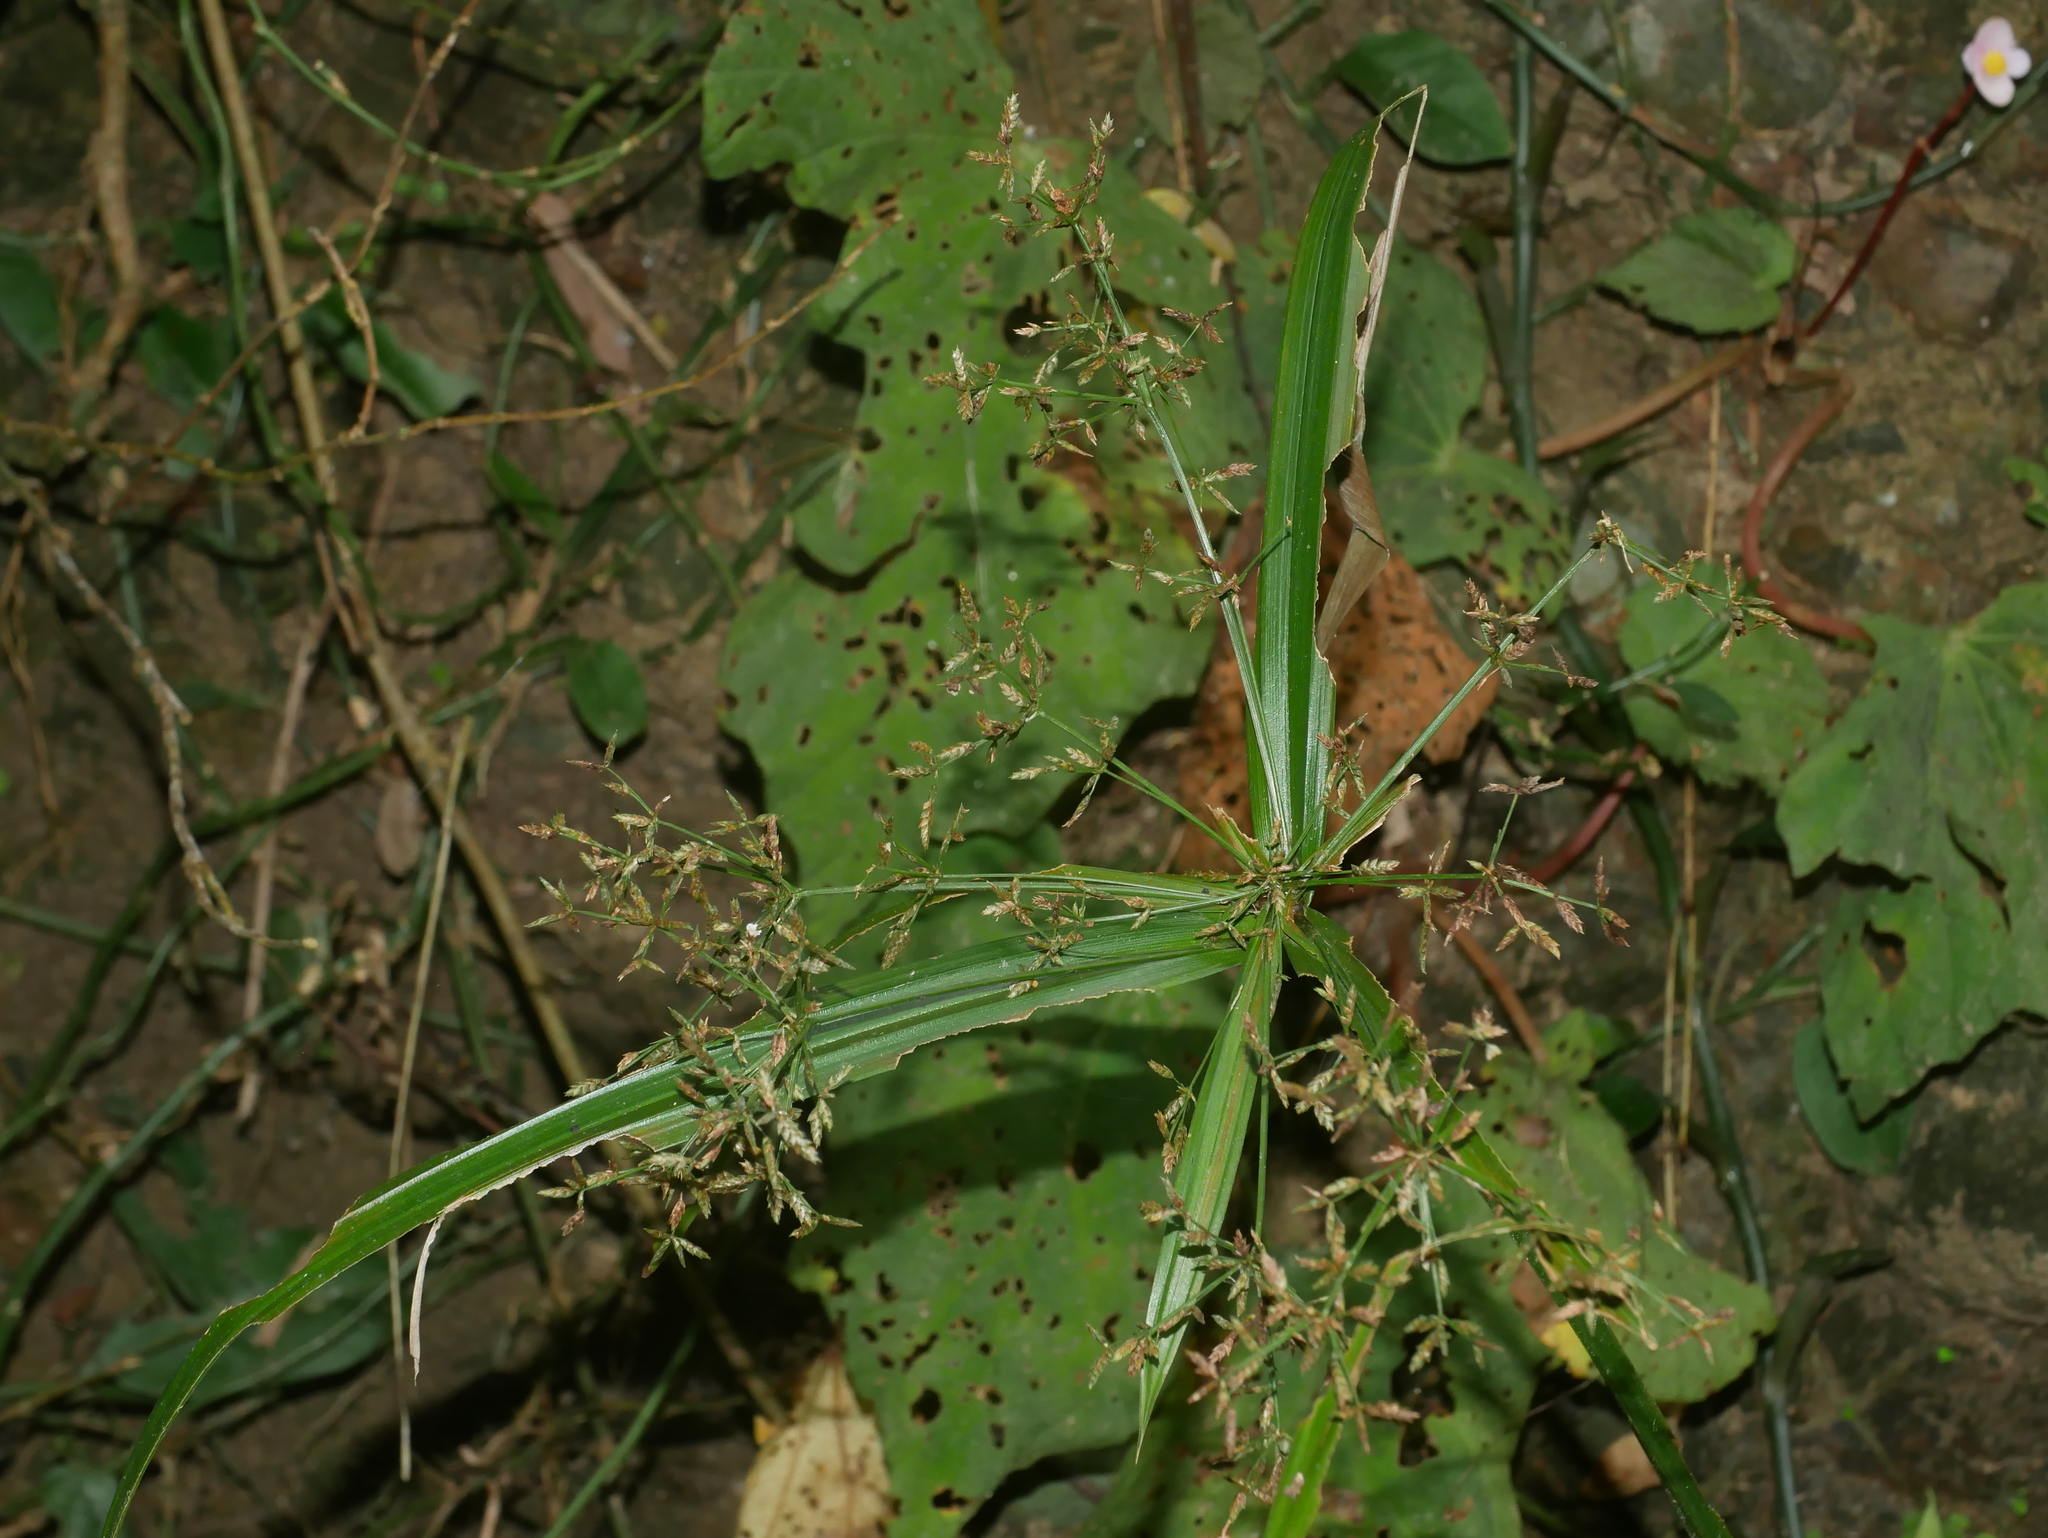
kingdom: Plantae
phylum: Tracheophyta
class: Liliopsida
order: Poales
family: Cyperaceae
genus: Cyperus
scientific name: Cyperus diffusus
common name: Dwarf umbrella grass
